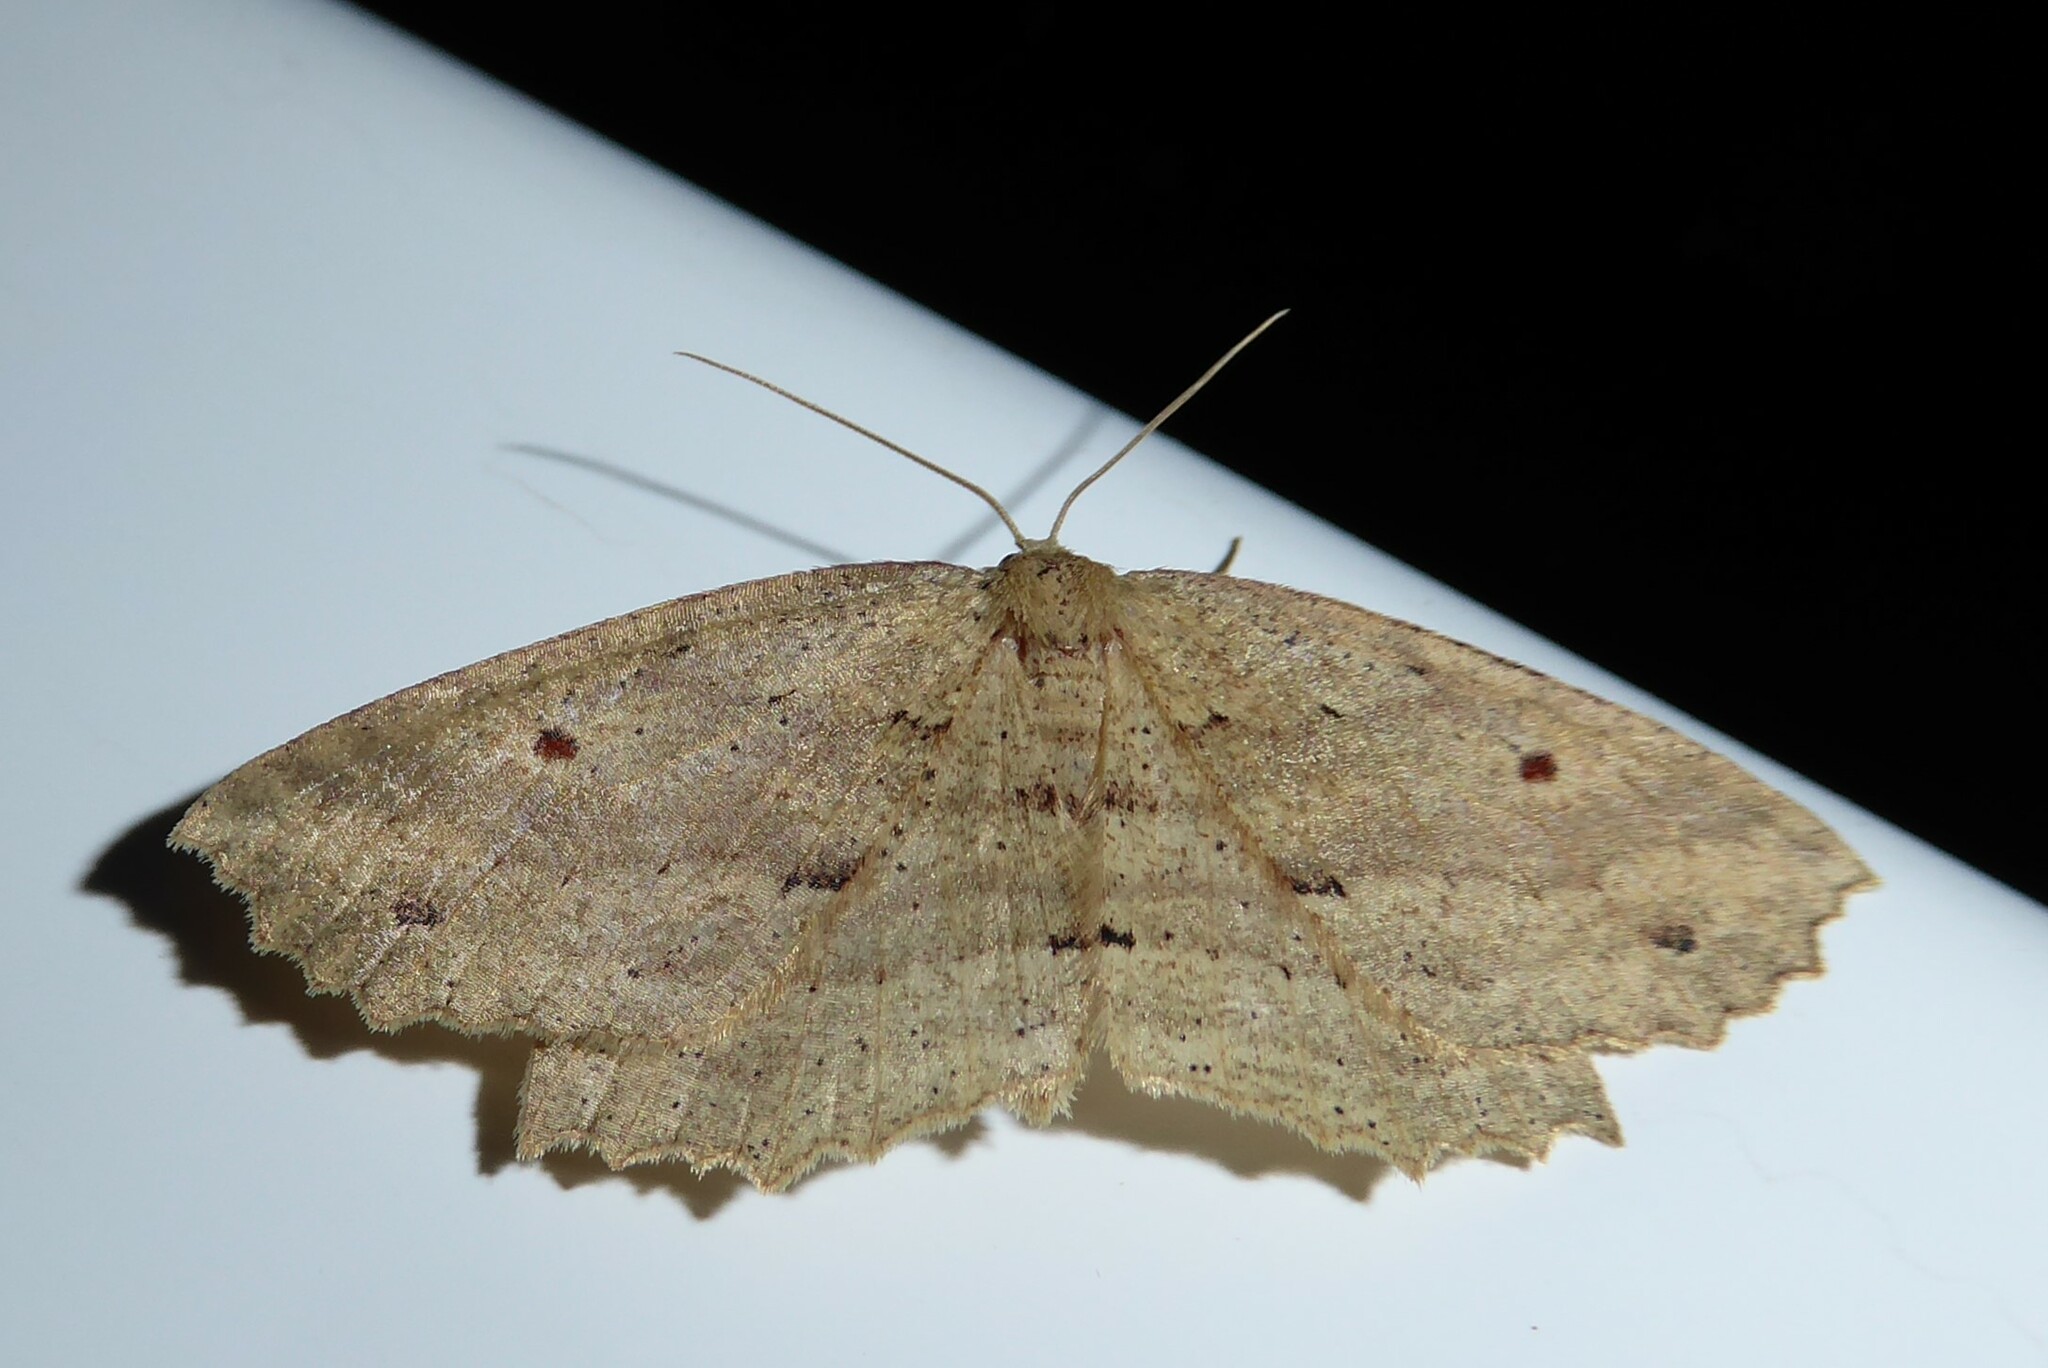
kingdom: Animalia
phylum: Arthropoda
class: Insecta
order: Lepidoptera
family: Geometridae
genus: Xyridacma
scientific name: Xyridacma veronicae
